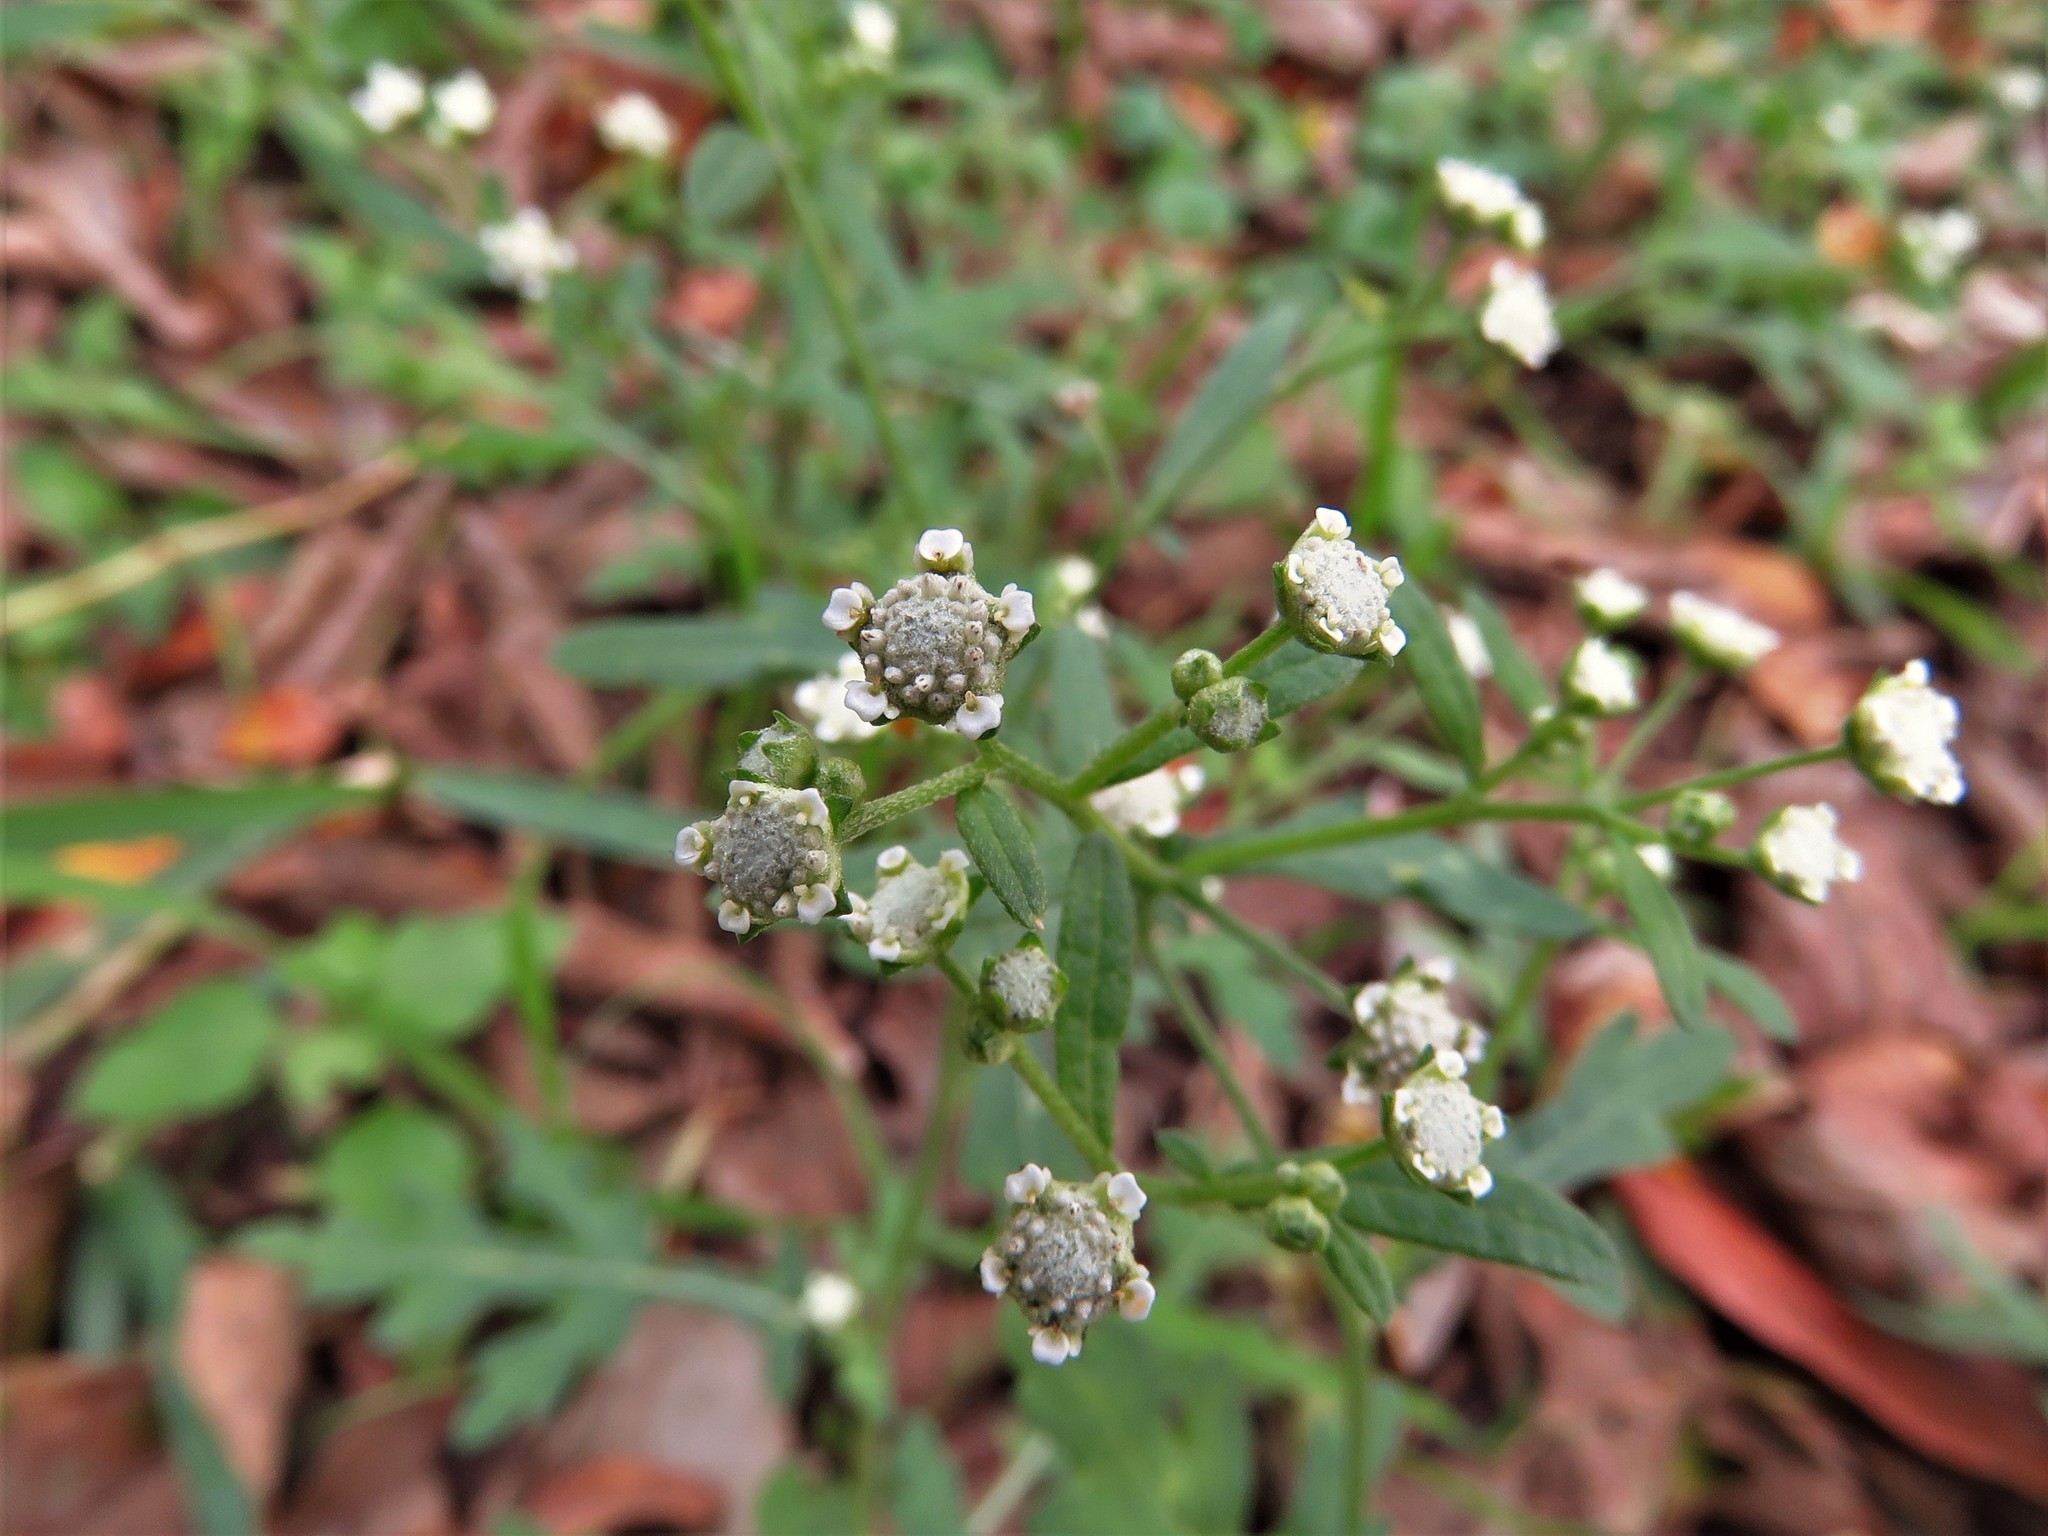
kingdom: Plantae
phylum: Tracheophyta
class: Magnoliopsida
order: Asterales
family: Asteraceae
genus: Parthenium
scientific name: Parthenium hysterophorus
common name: Santa maria feverfew
